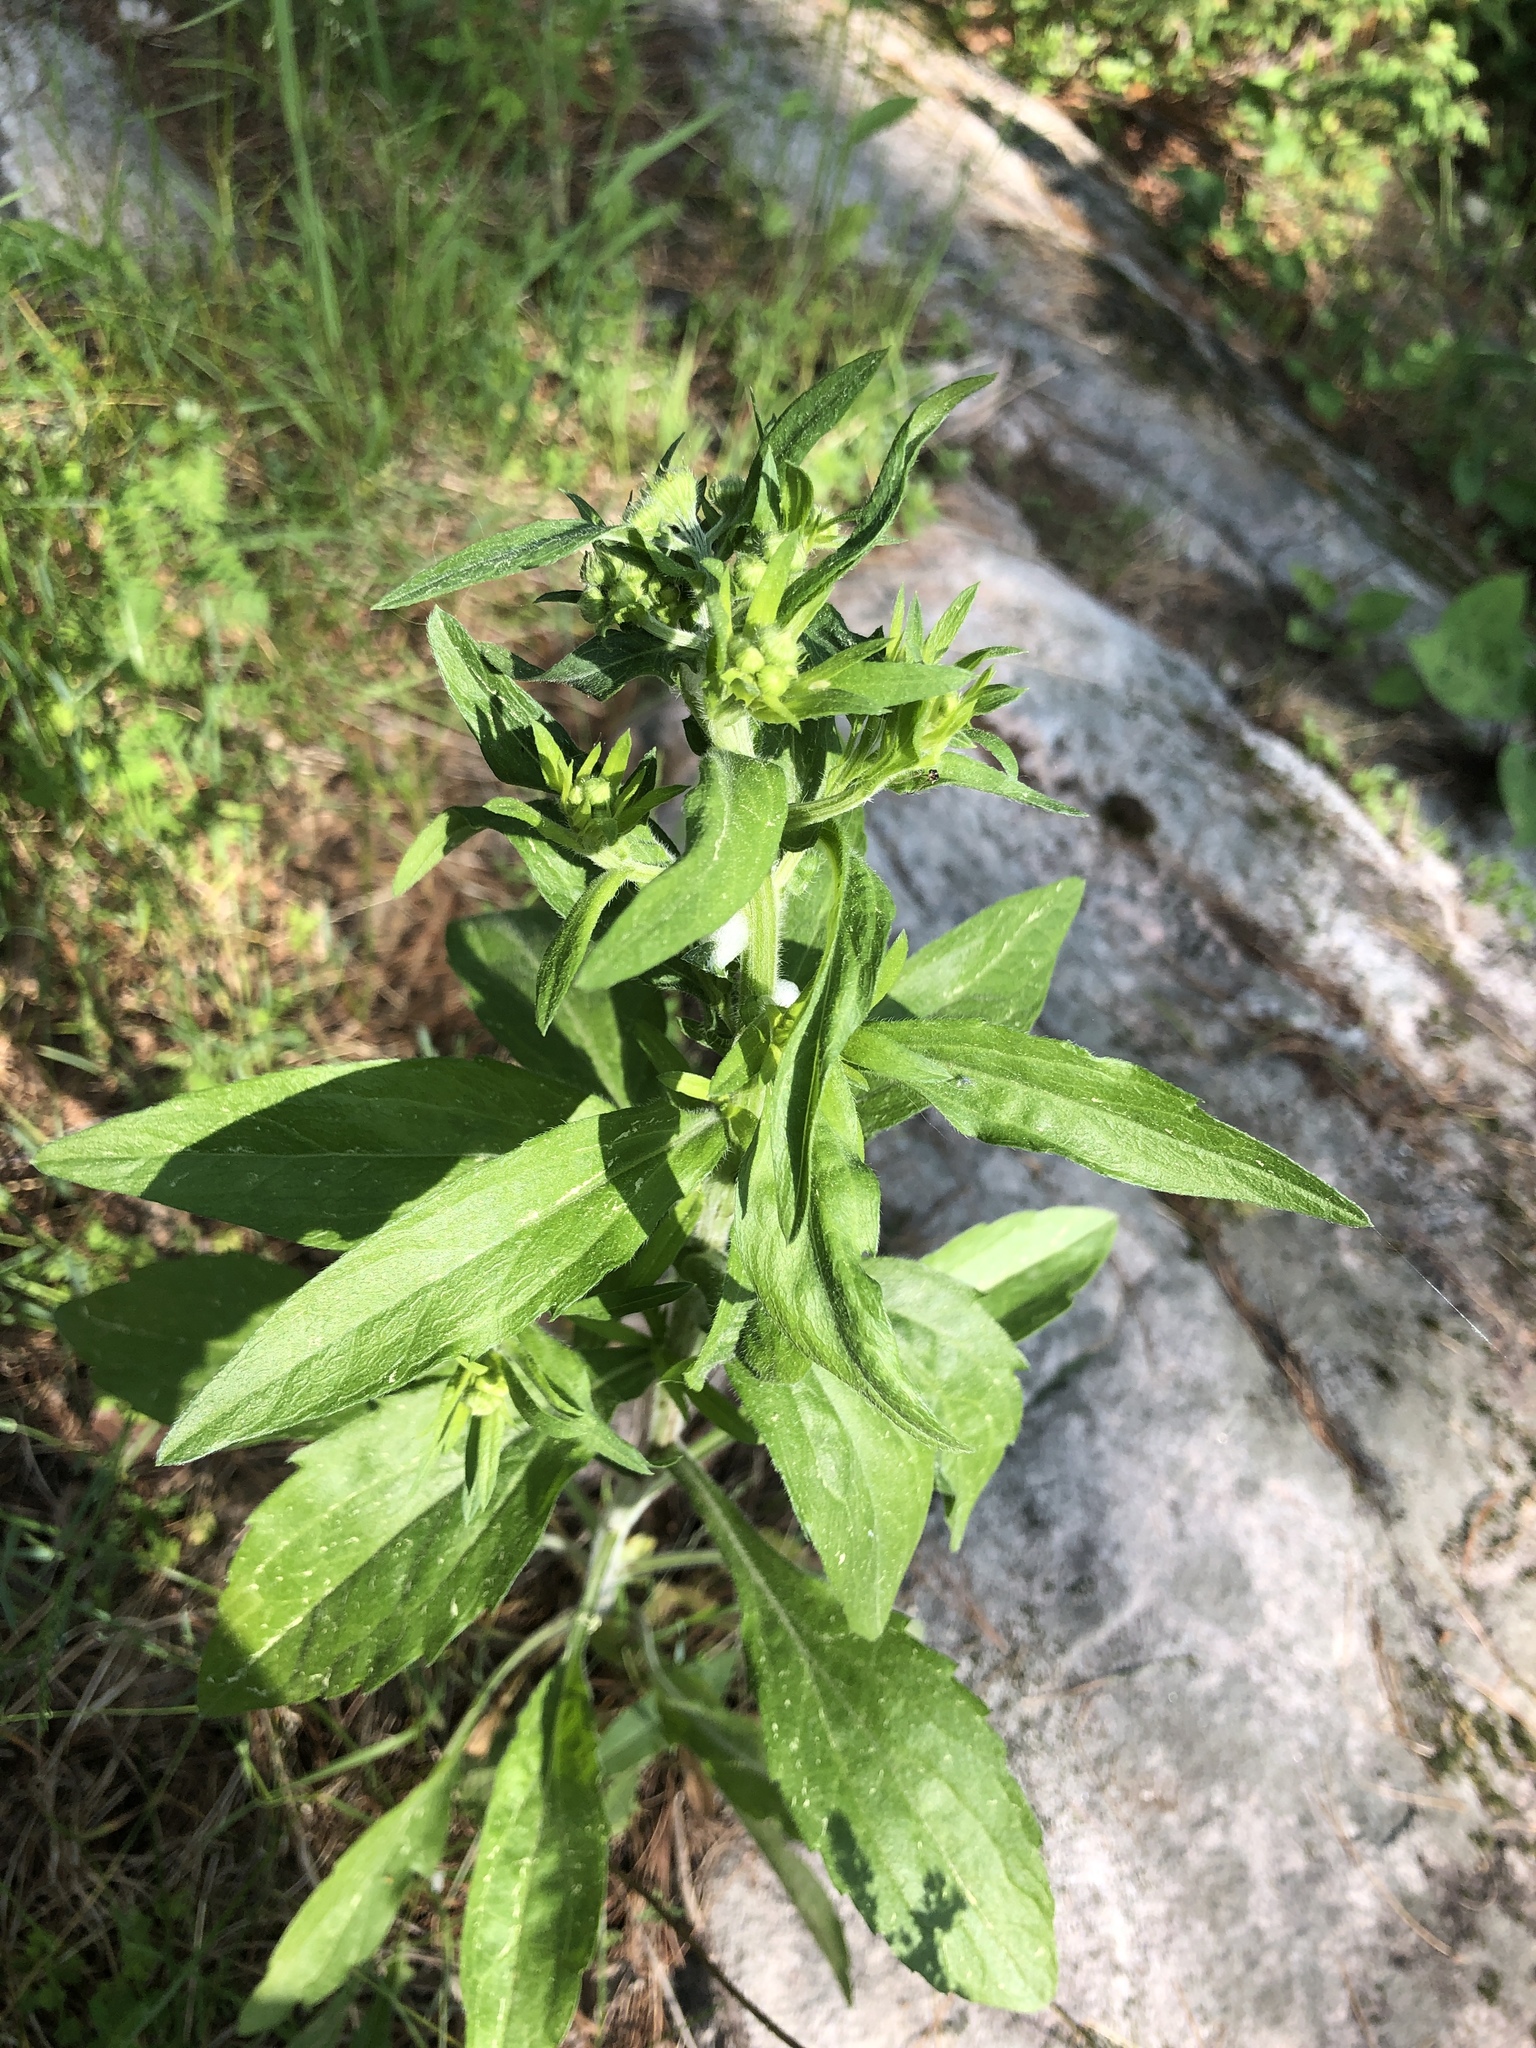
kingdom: Plantae
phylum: Tracheophyta
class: Magnoliopsida
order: Asterales
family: Asteraceae
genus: Erigeron
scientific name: Erigeron annuus
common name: Tall fleabane
